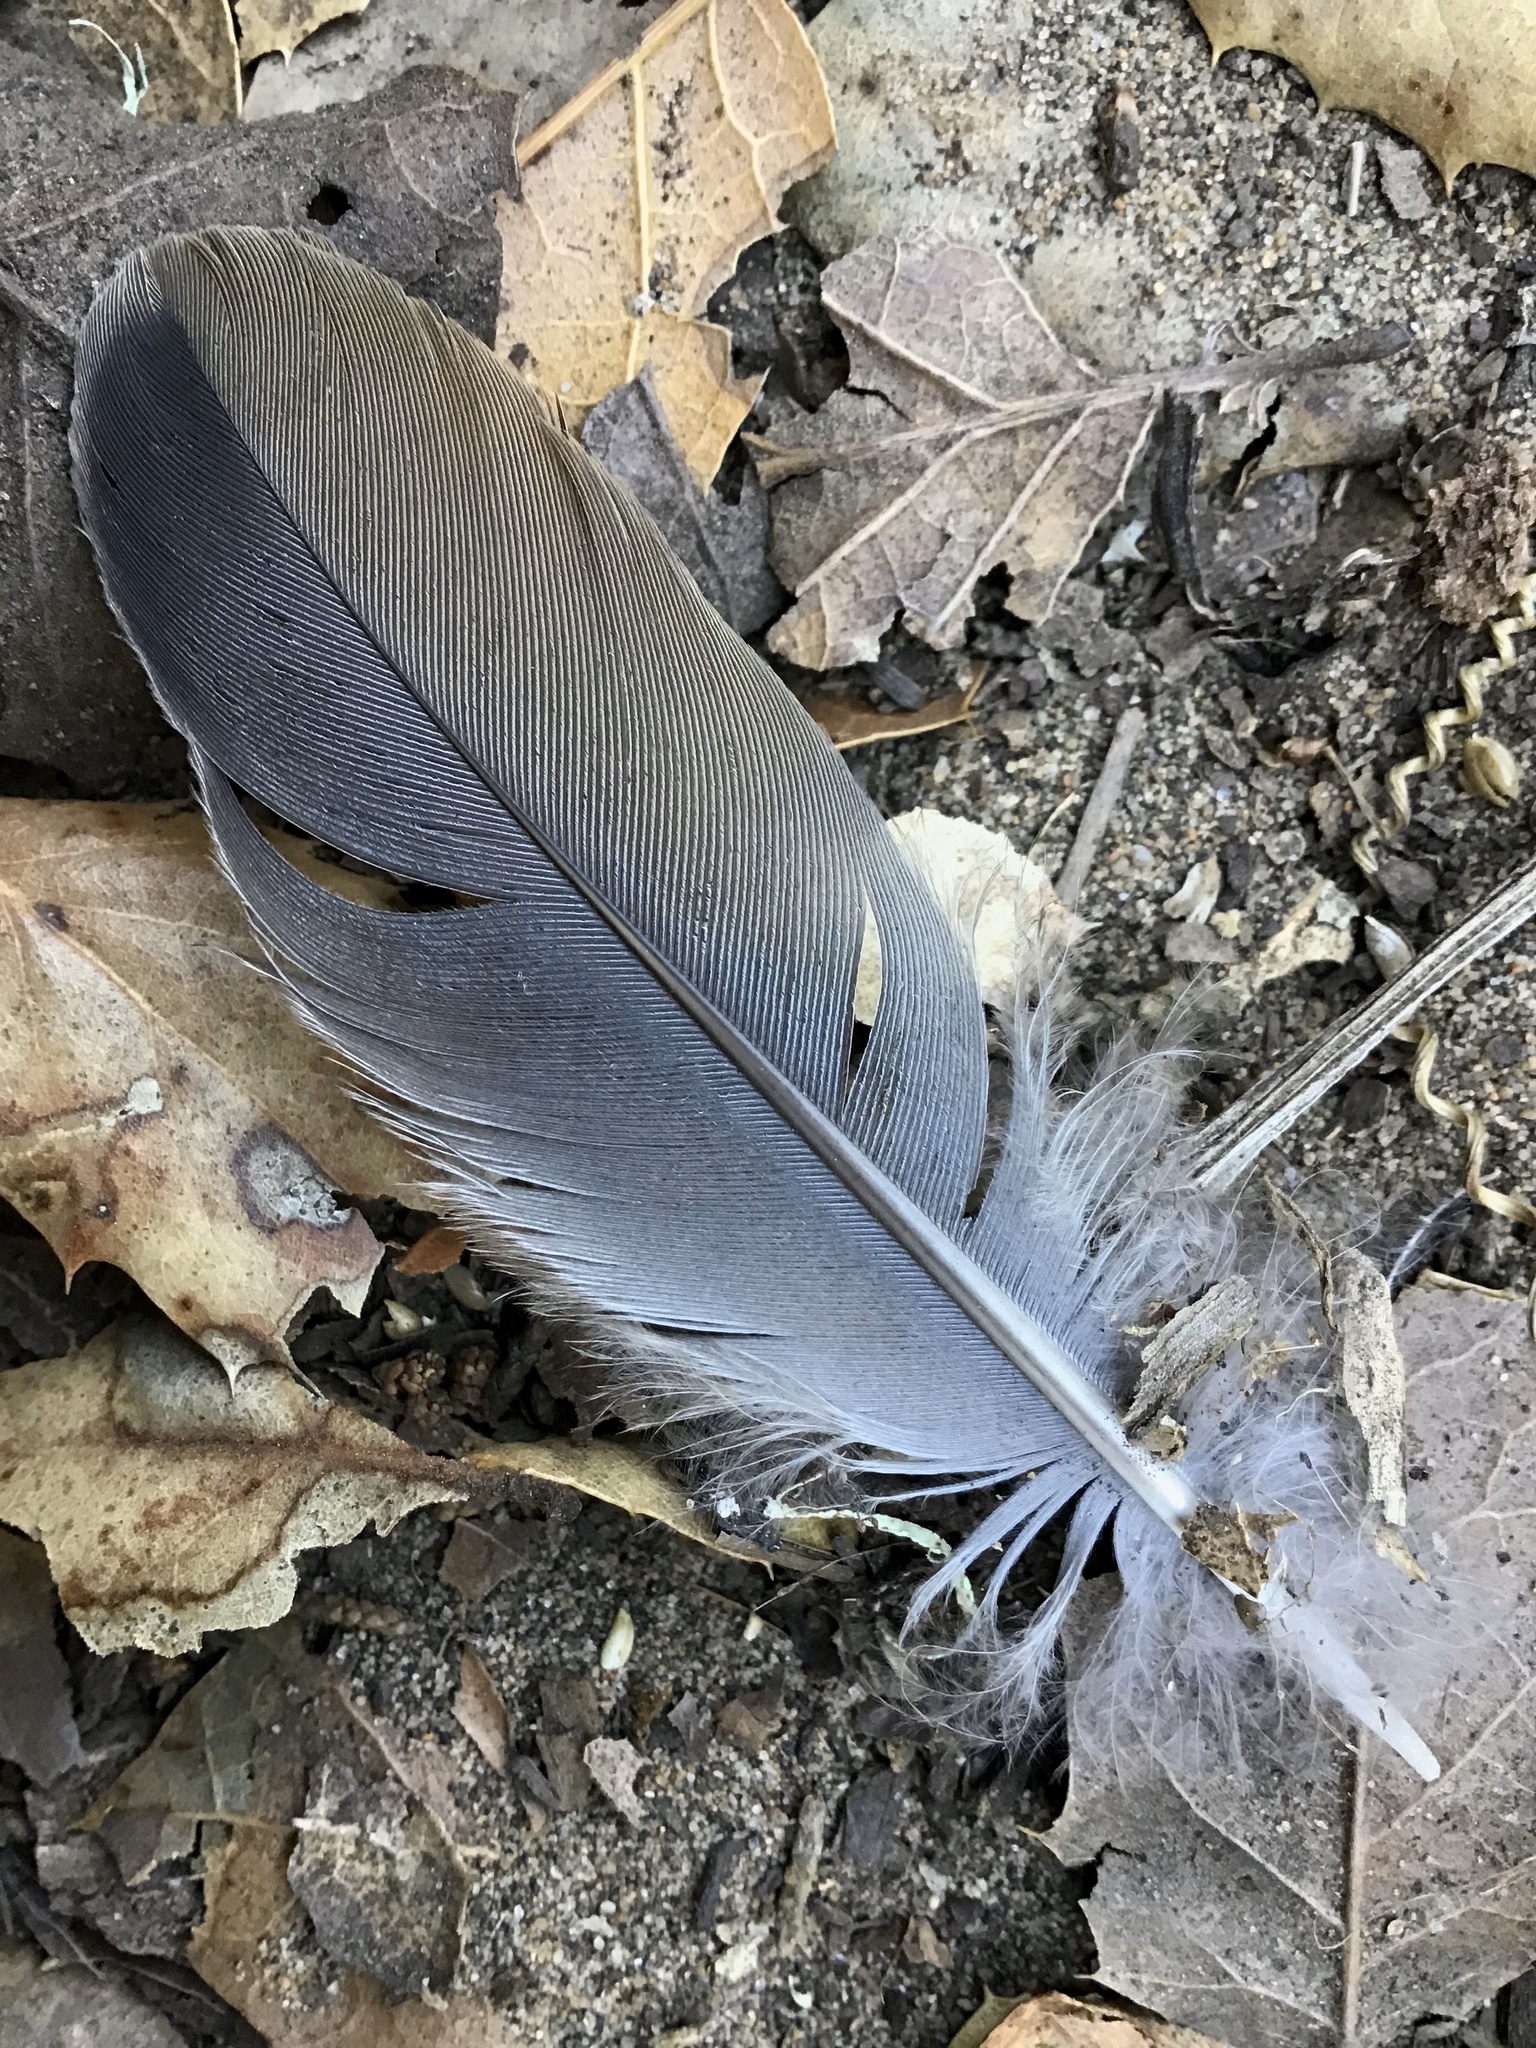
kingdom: Animalia
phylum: Chordata
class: Aves
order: Columbiformes
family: Columbidae
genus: Zenaida
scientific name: Zenaida macroura
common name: Mourning dove
